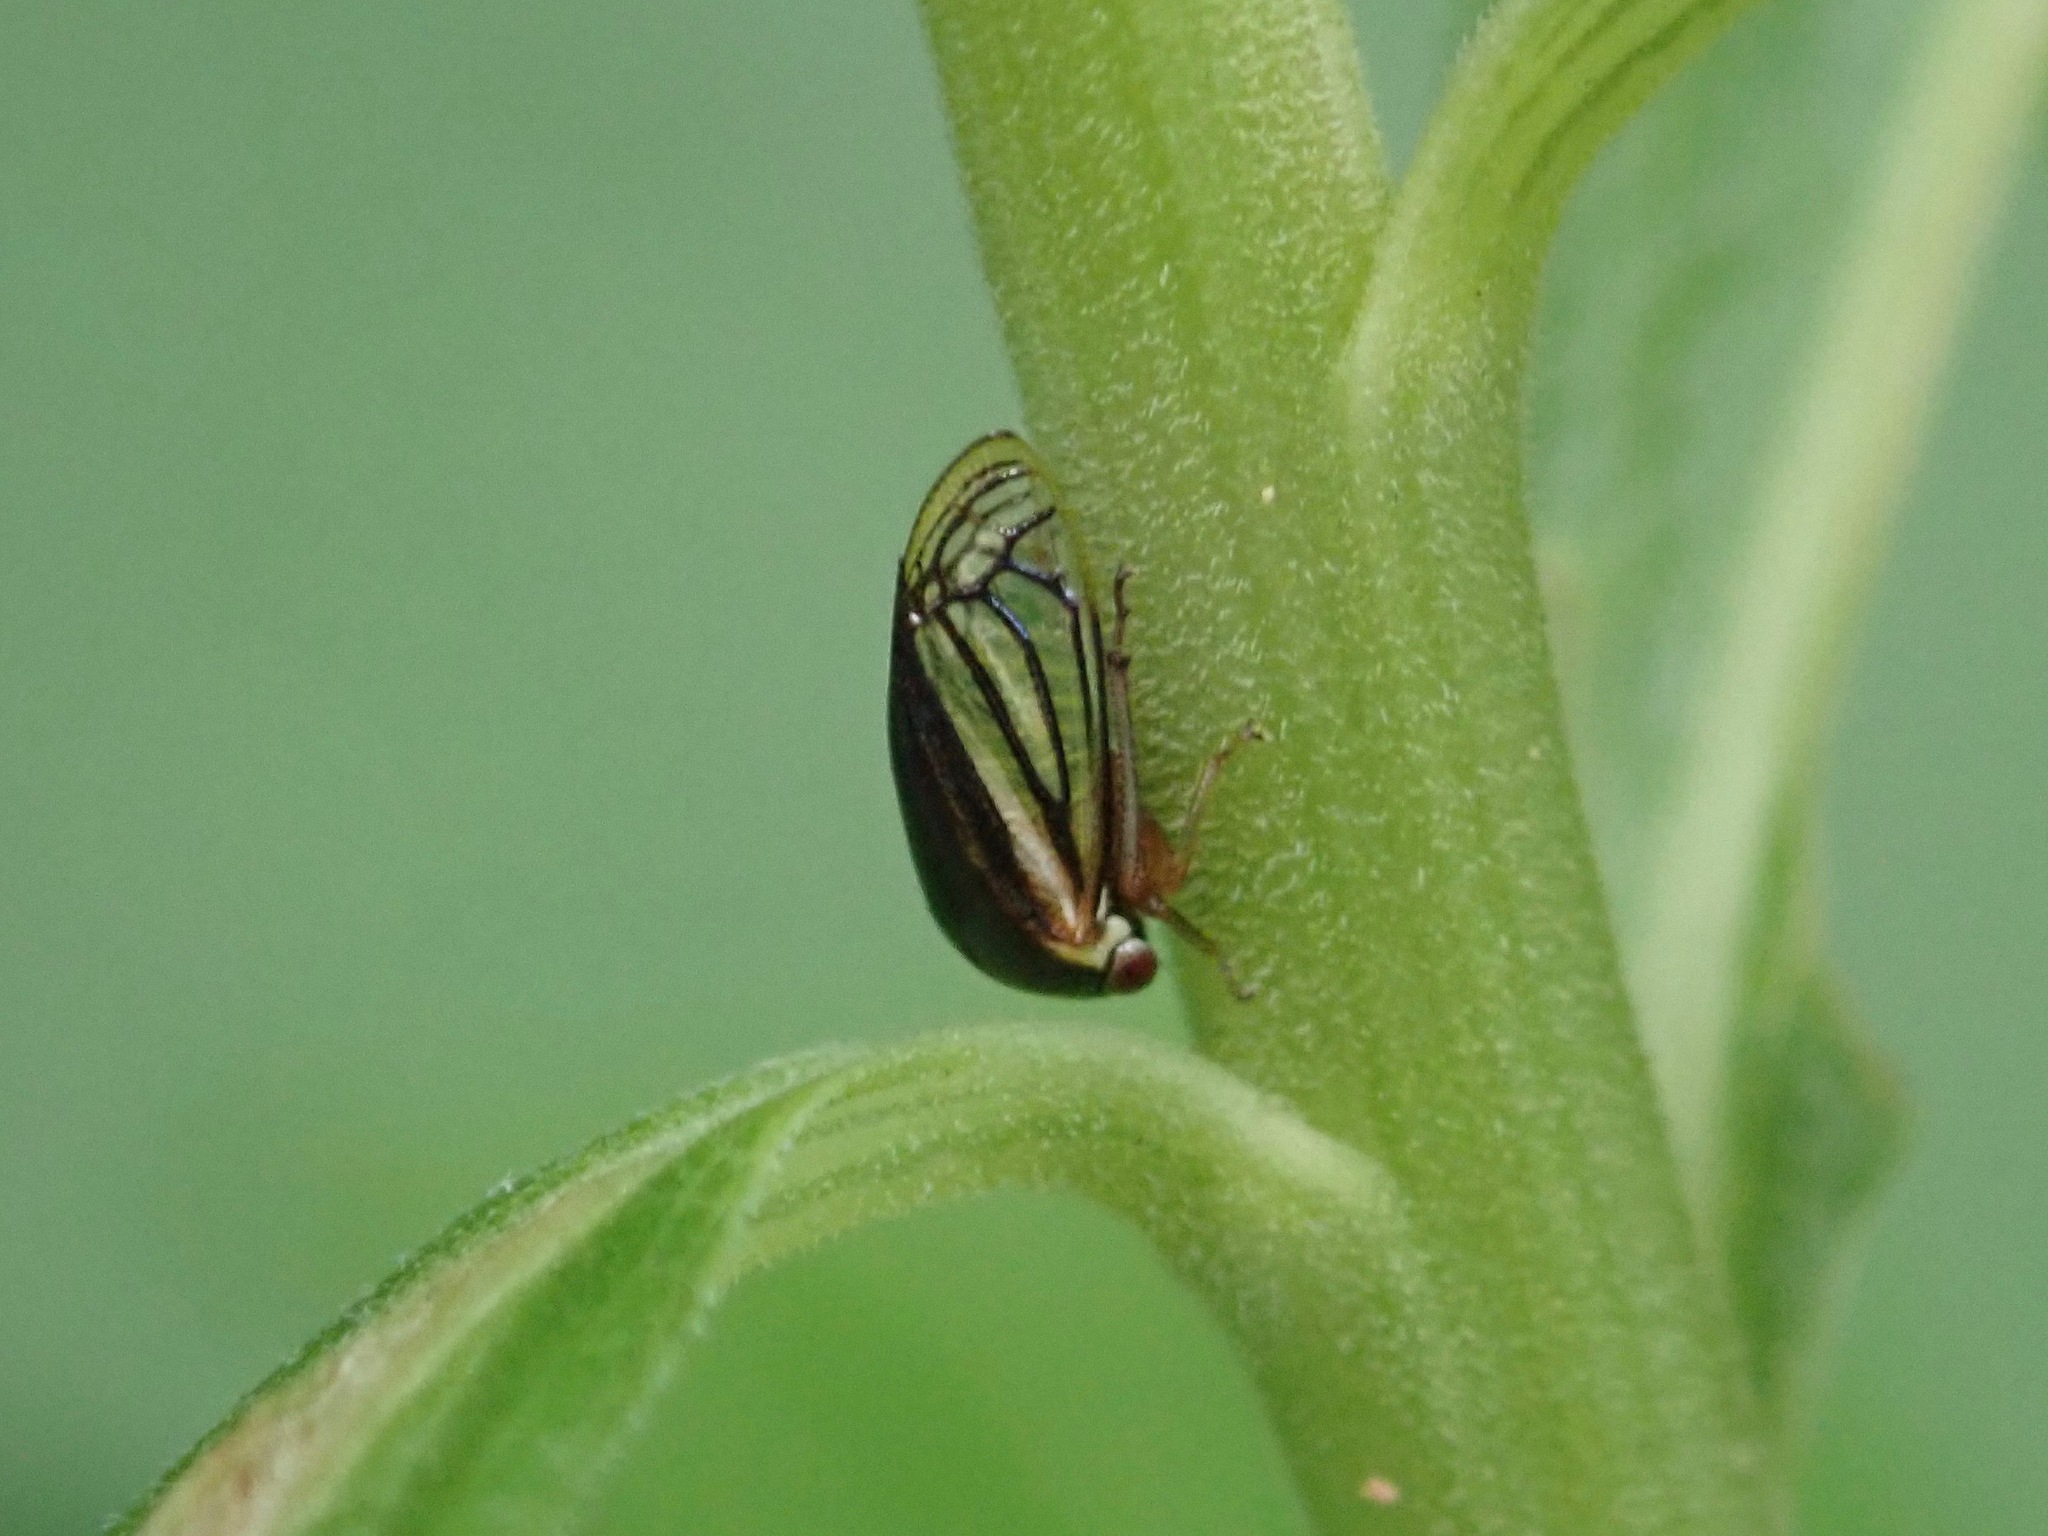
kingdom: Animalia
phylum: Arthropoda
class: Insecta
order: Hemiptera
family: Membracidae
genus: Acutalis
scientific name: Acutalis tartarea
